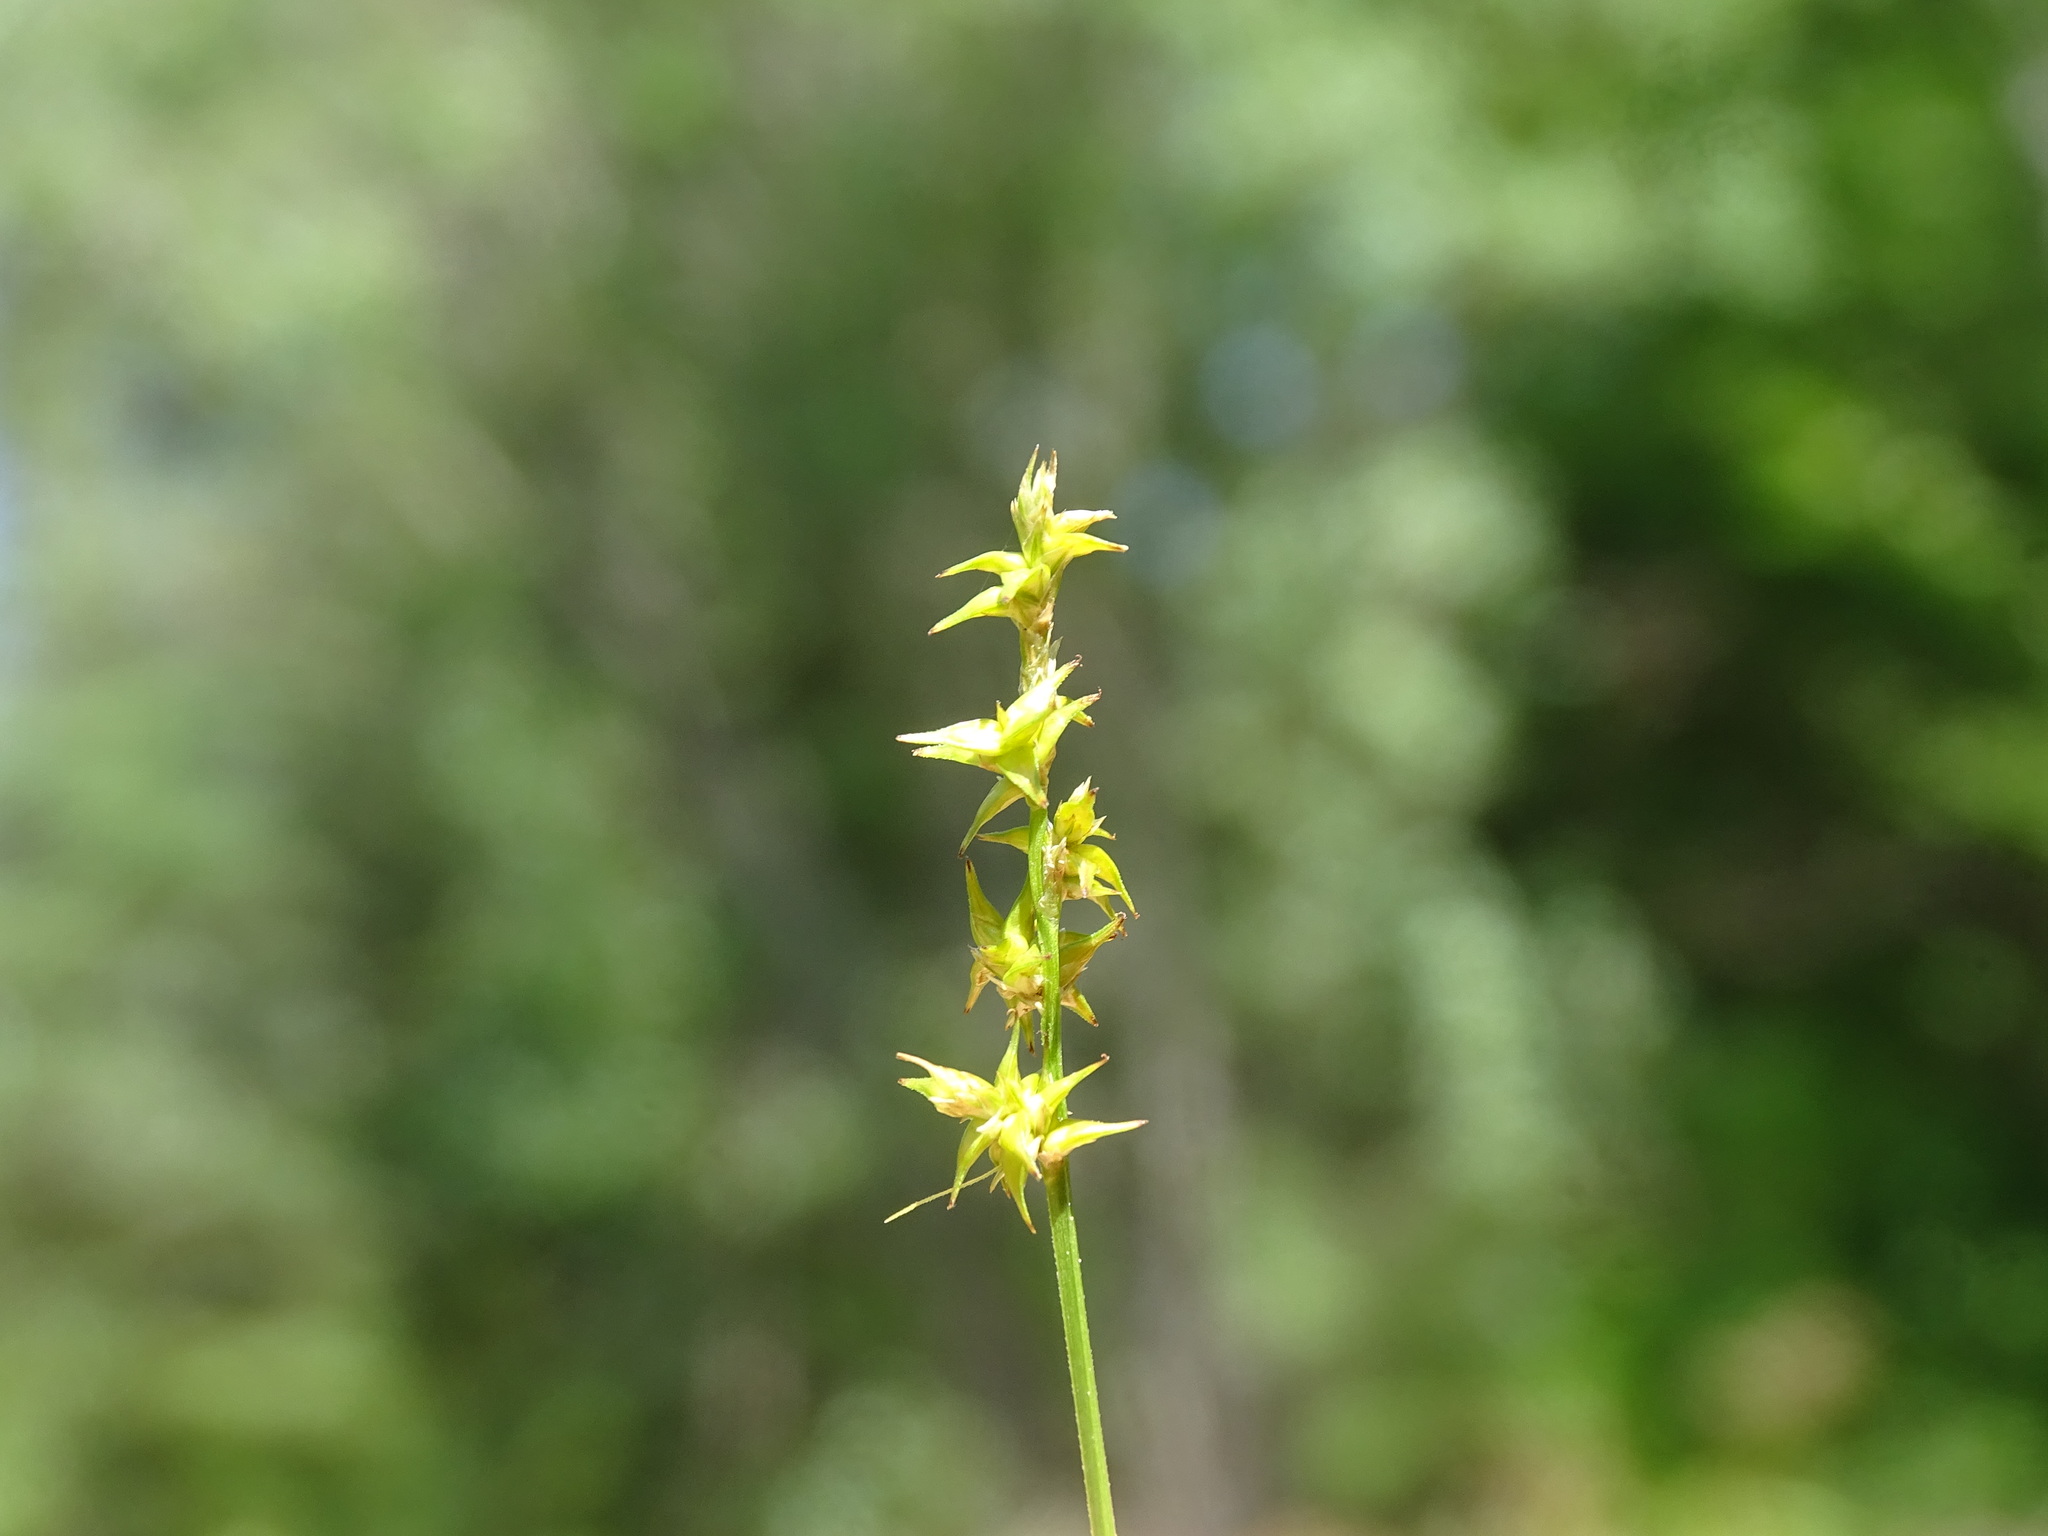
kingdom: Plantae
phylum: Tracheophyta
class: Liliopsida
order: Poales
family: Cyperaceae
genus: Carex
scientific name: Carex echinata
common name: Star sedge
